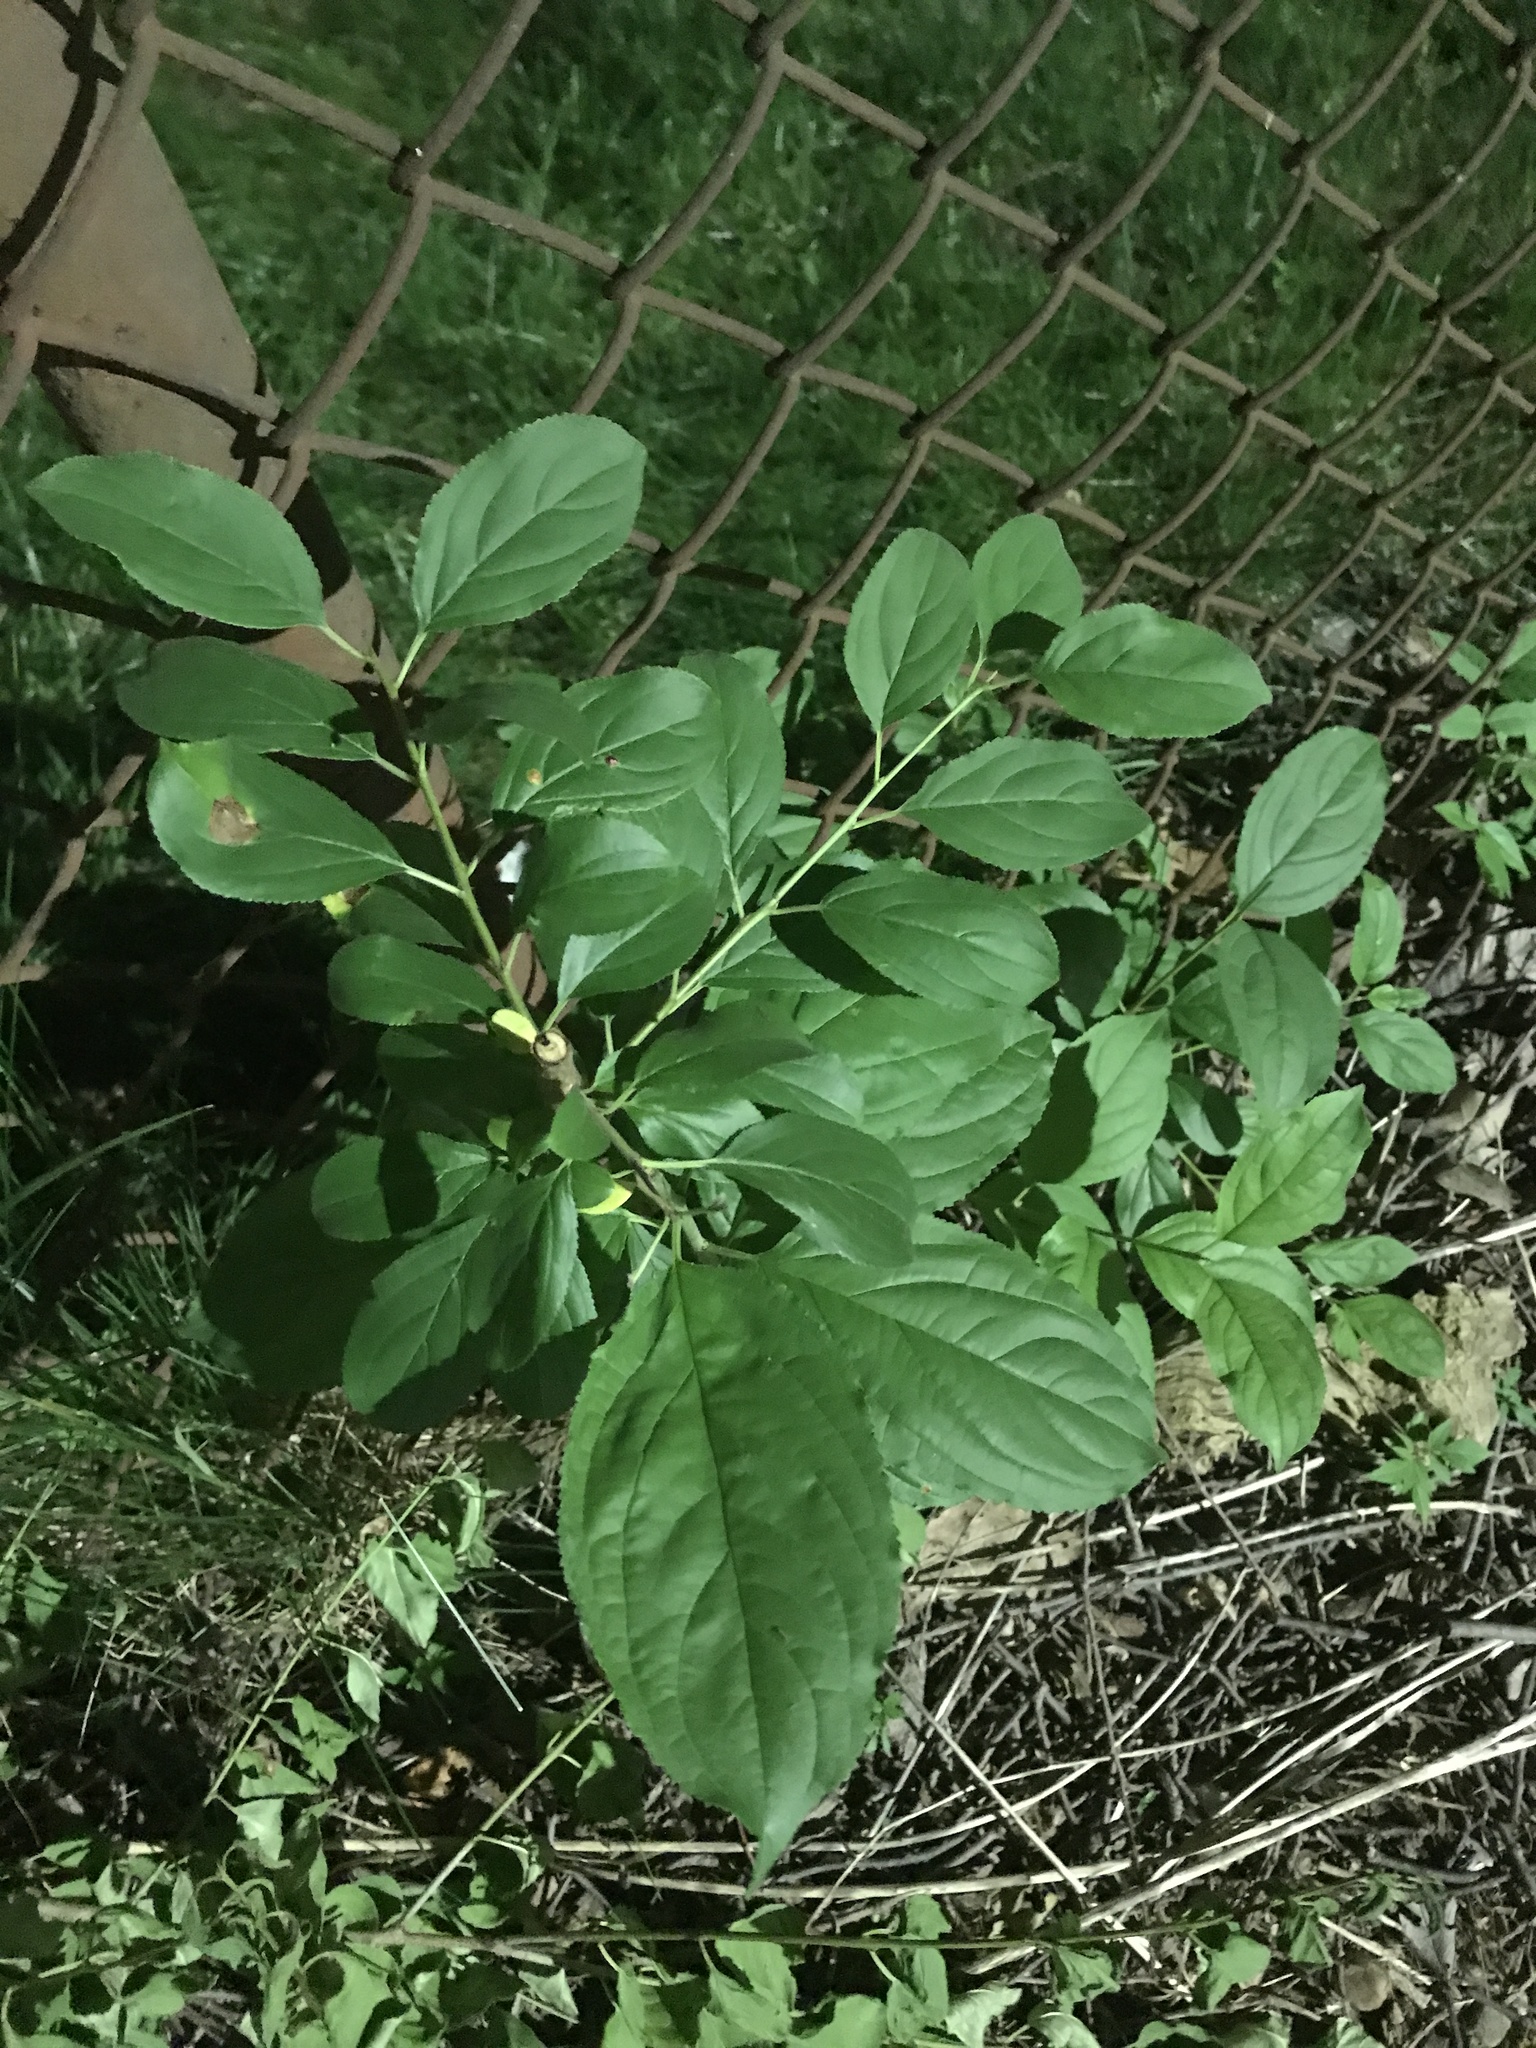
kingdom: Plantae
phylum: Tracheophyta
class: Magnoliopsida
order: Rosales
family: Rhamnaceae
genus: Rhamnus
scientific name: Rhamnus cathartica
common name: Common buckthorn
